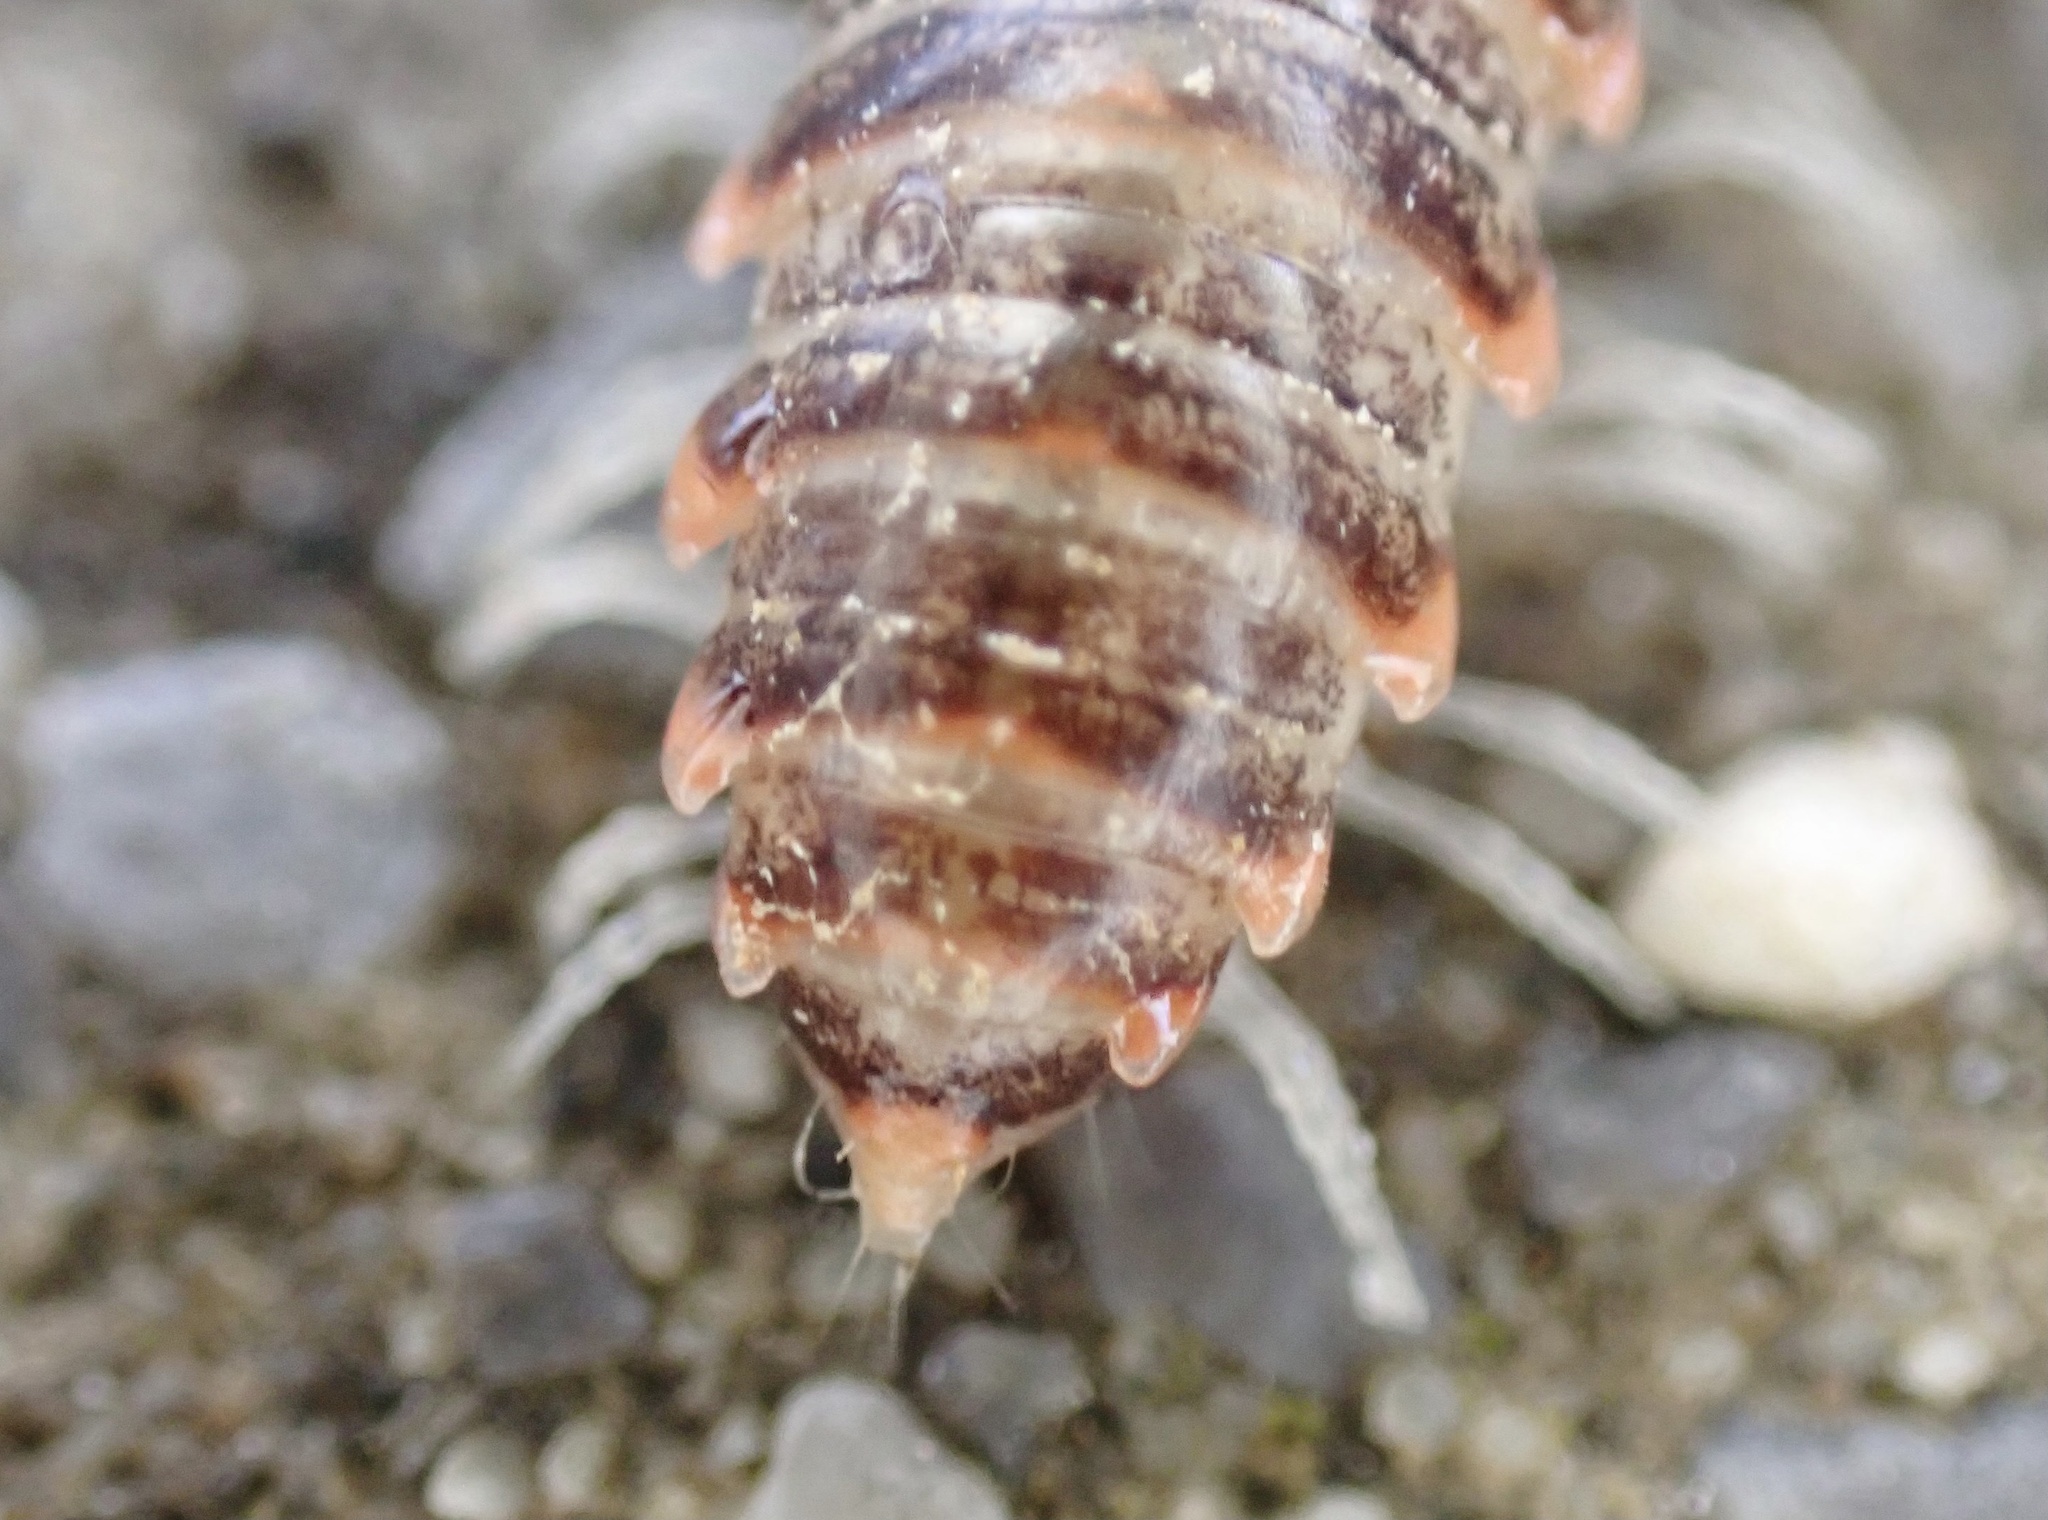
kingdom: Animalia
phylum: Arthropoda
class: Diplopoda
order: Polydesmida
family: Xystodesmidae
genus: Oenomaea
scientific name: Oenomaea pulchella
